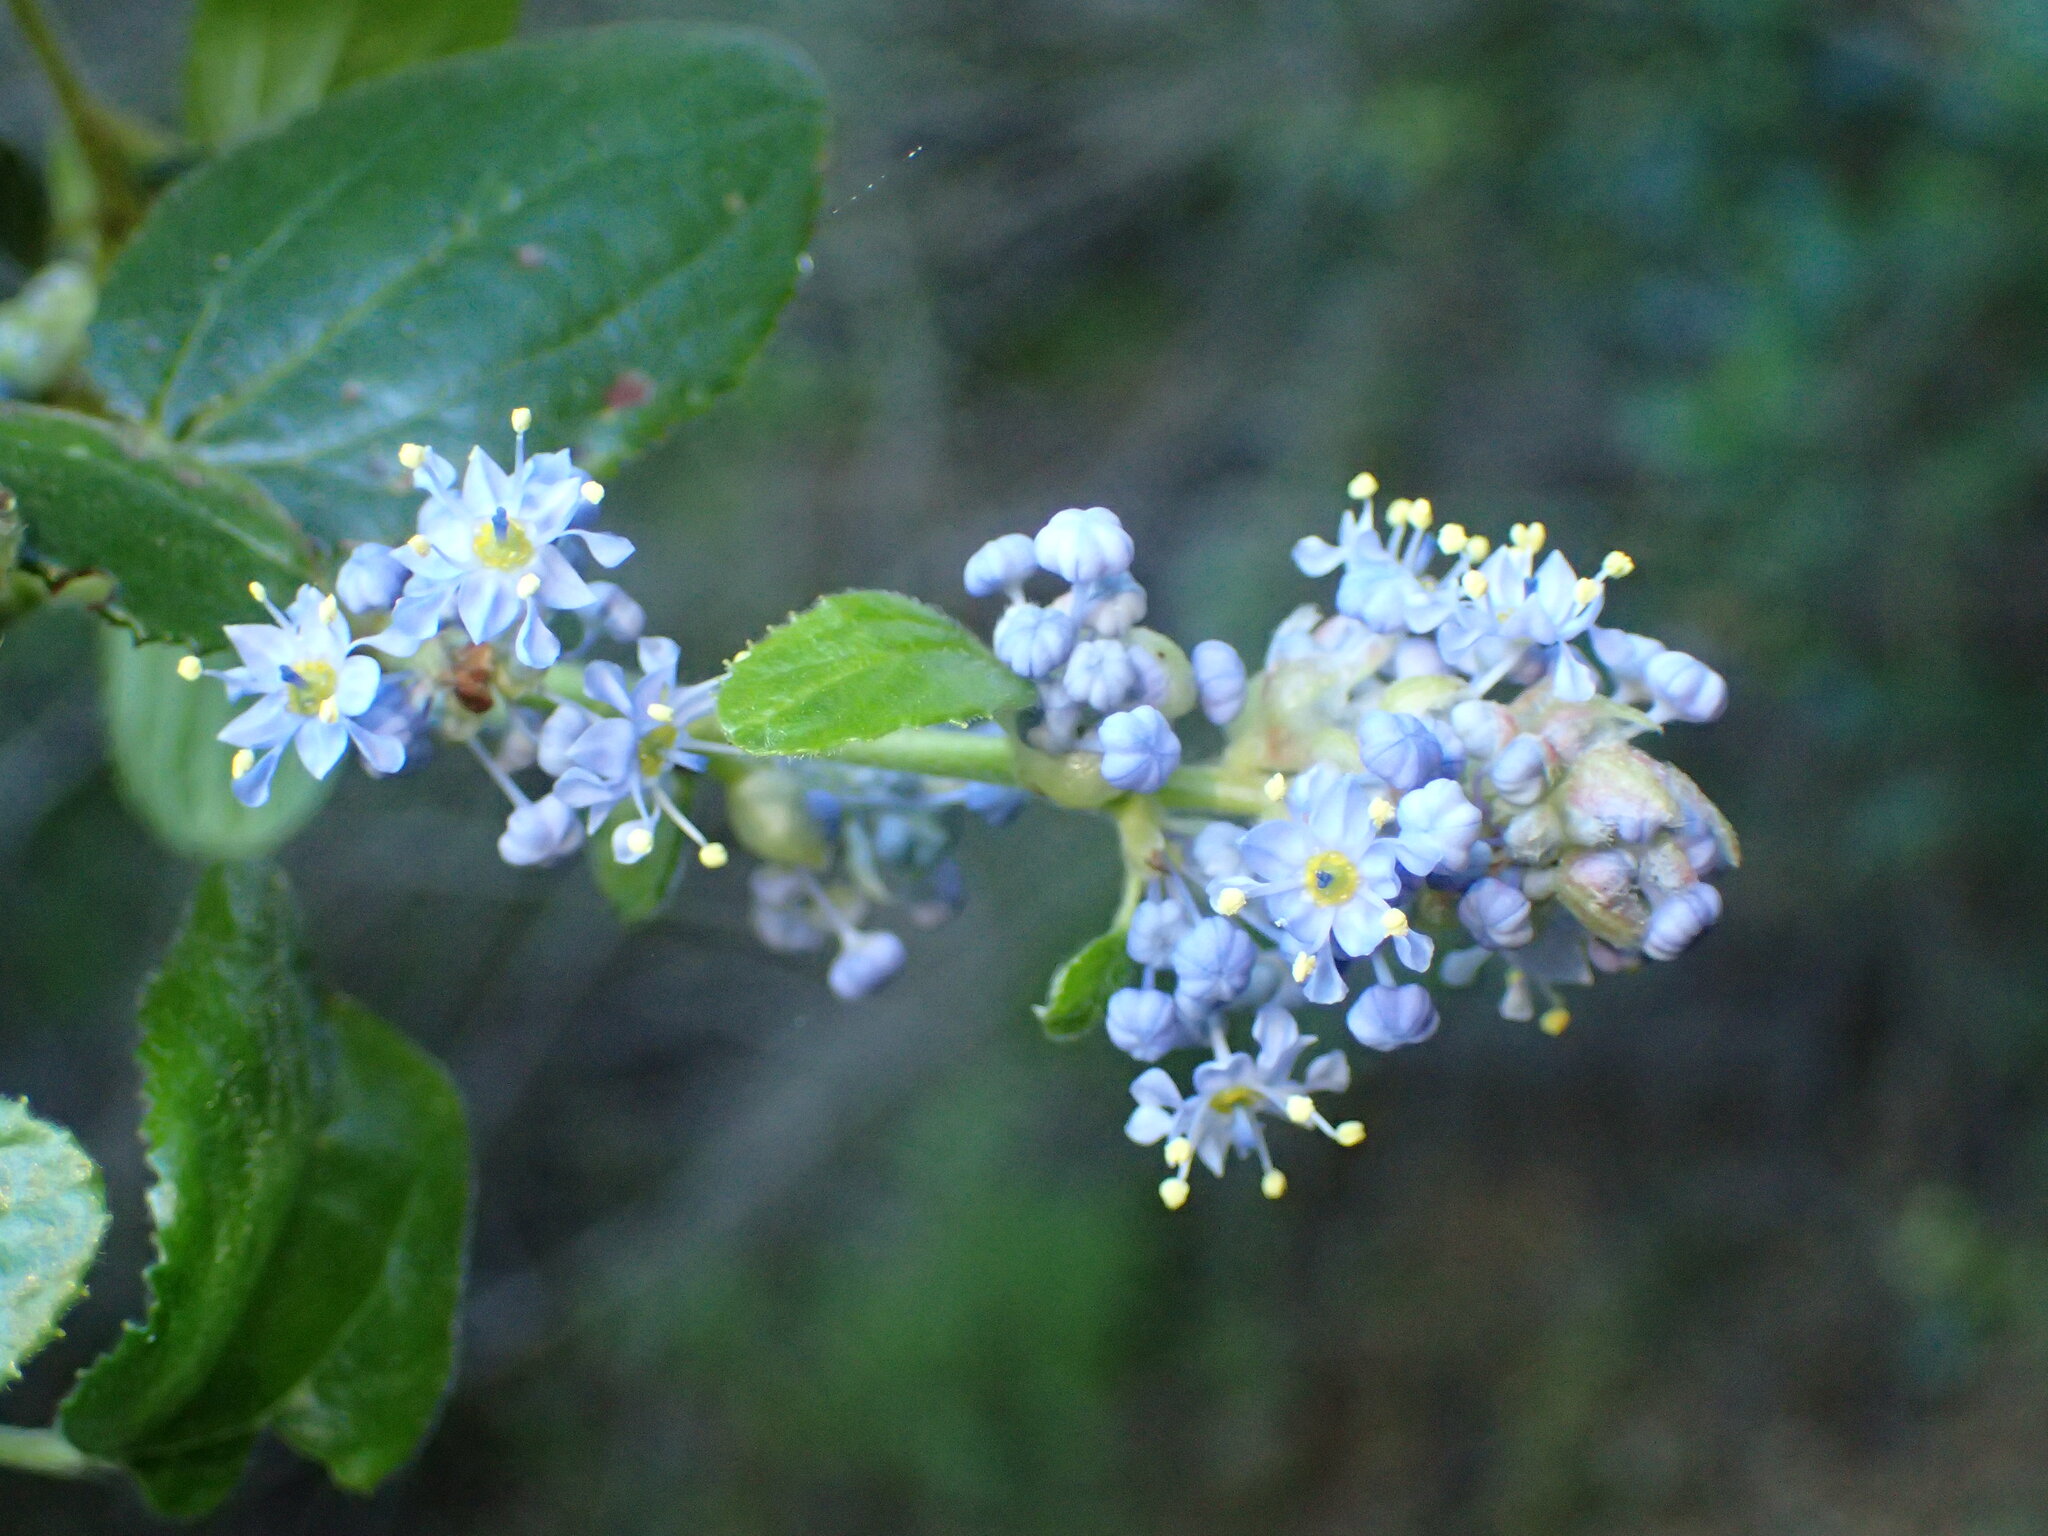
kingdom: Plantae
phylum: Tracheophyta
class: Magnoliopsida
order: Rosales
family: Rhamnaceae
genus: Ceanothus
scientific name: Ceanothus oliganthus
